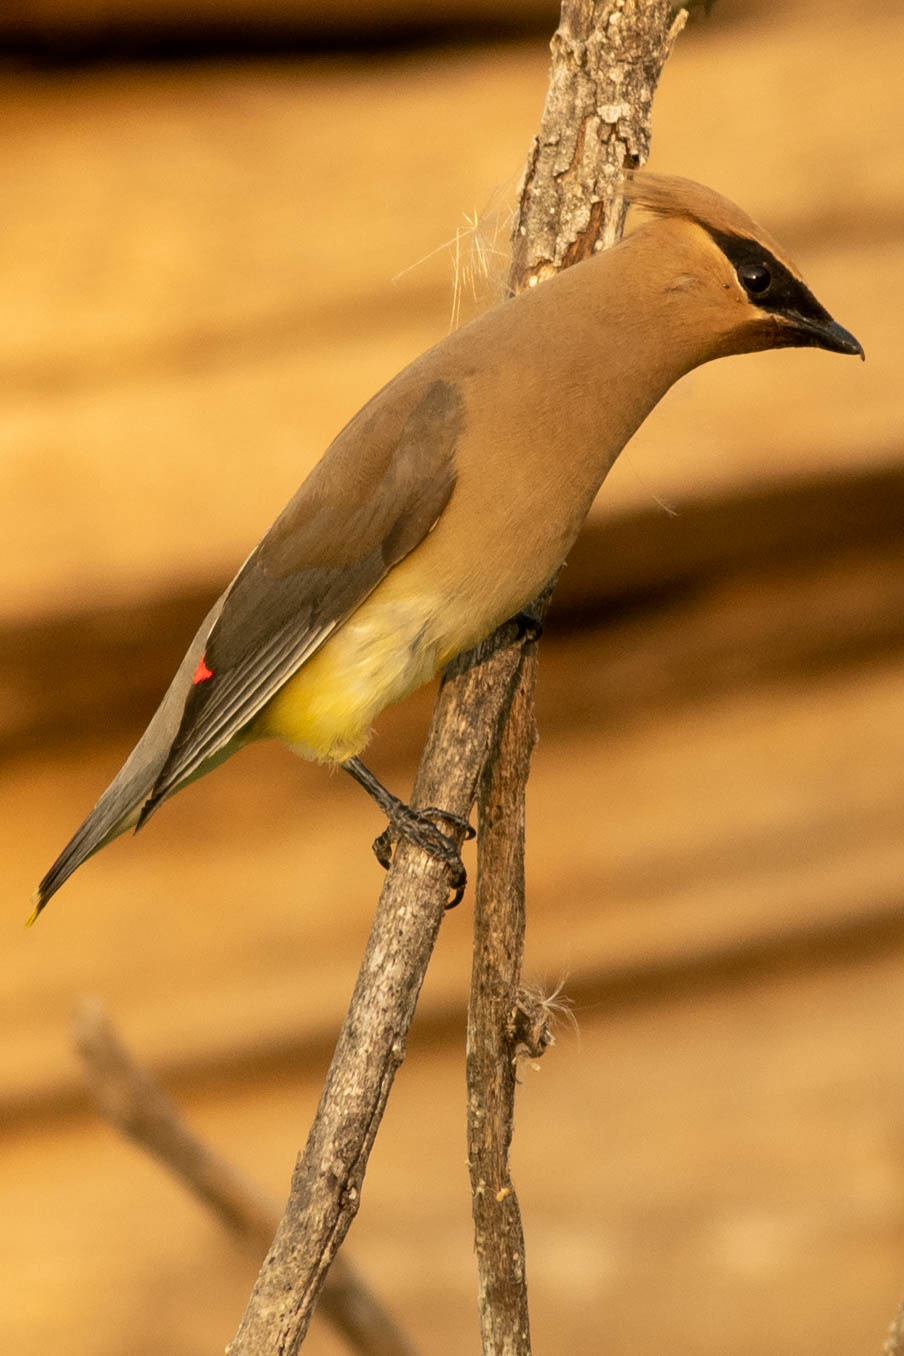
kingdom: Animalia
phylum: Chordata
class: Aves
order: Passeriformes
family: Bombycillidae
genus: Bombycilla
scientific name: Bombycilla cedrorum
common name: Cedar waxwing
